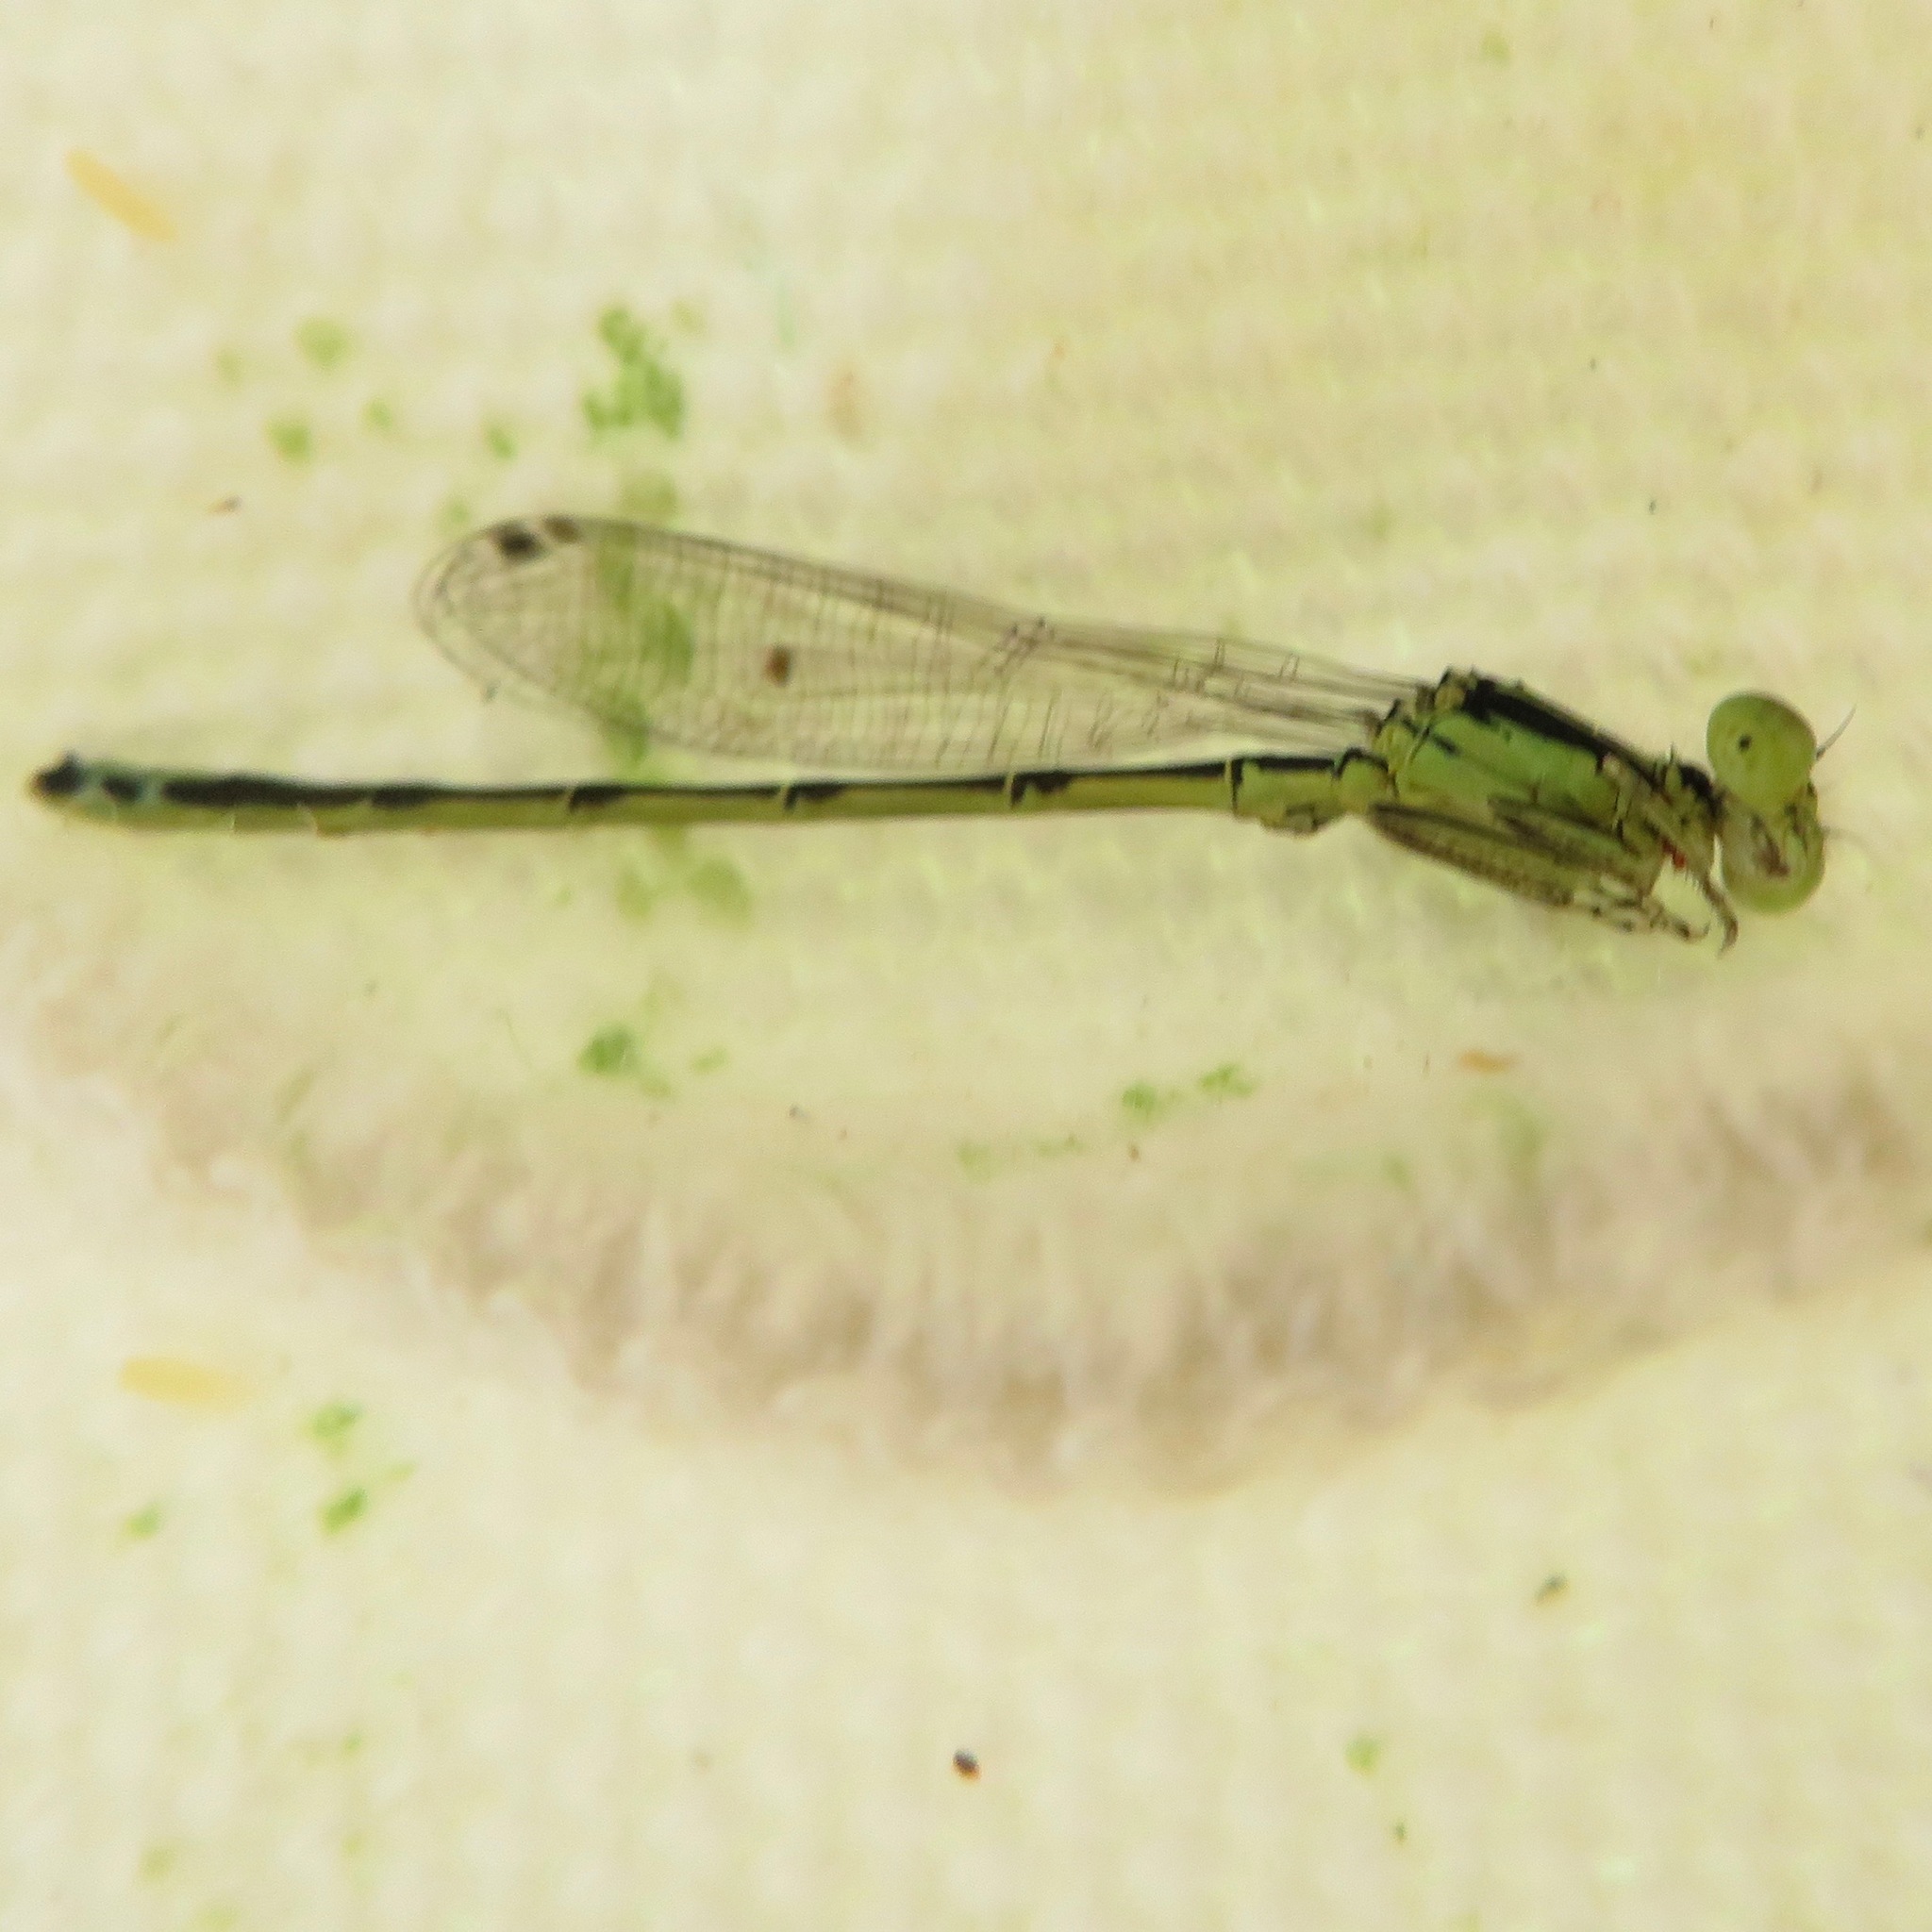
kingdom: Animalia
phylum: Arthropoda
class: Insecta
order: Odonata
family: Coenagrionidae
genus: Ischnura
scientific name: Ischnura perparva
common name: Western forktail
